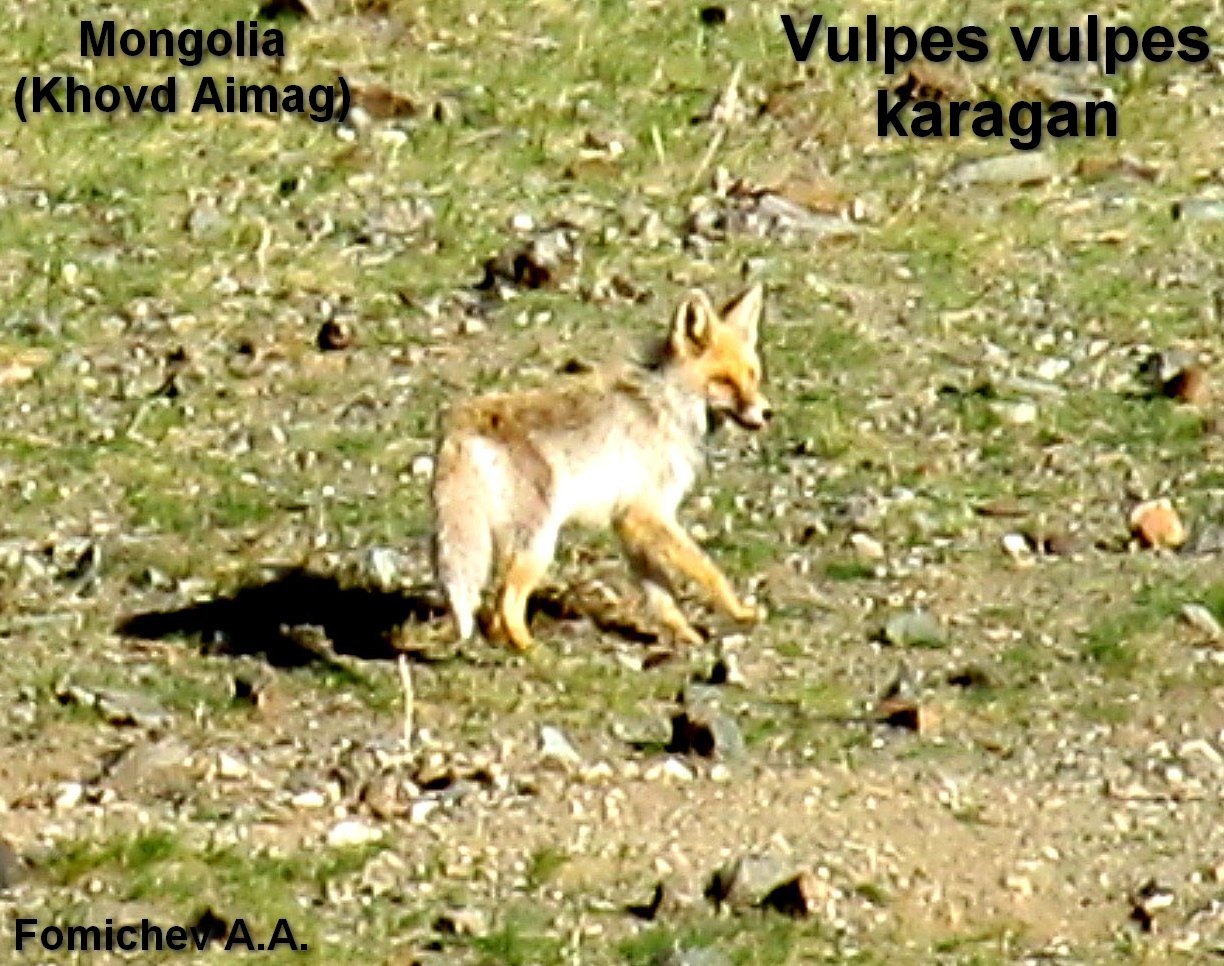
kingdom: Animalia
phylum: Chordata
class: Mammalia
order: Carnivora
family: Canidae
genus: Vulpes
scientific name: Vulpes vulpes
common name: Red fox
